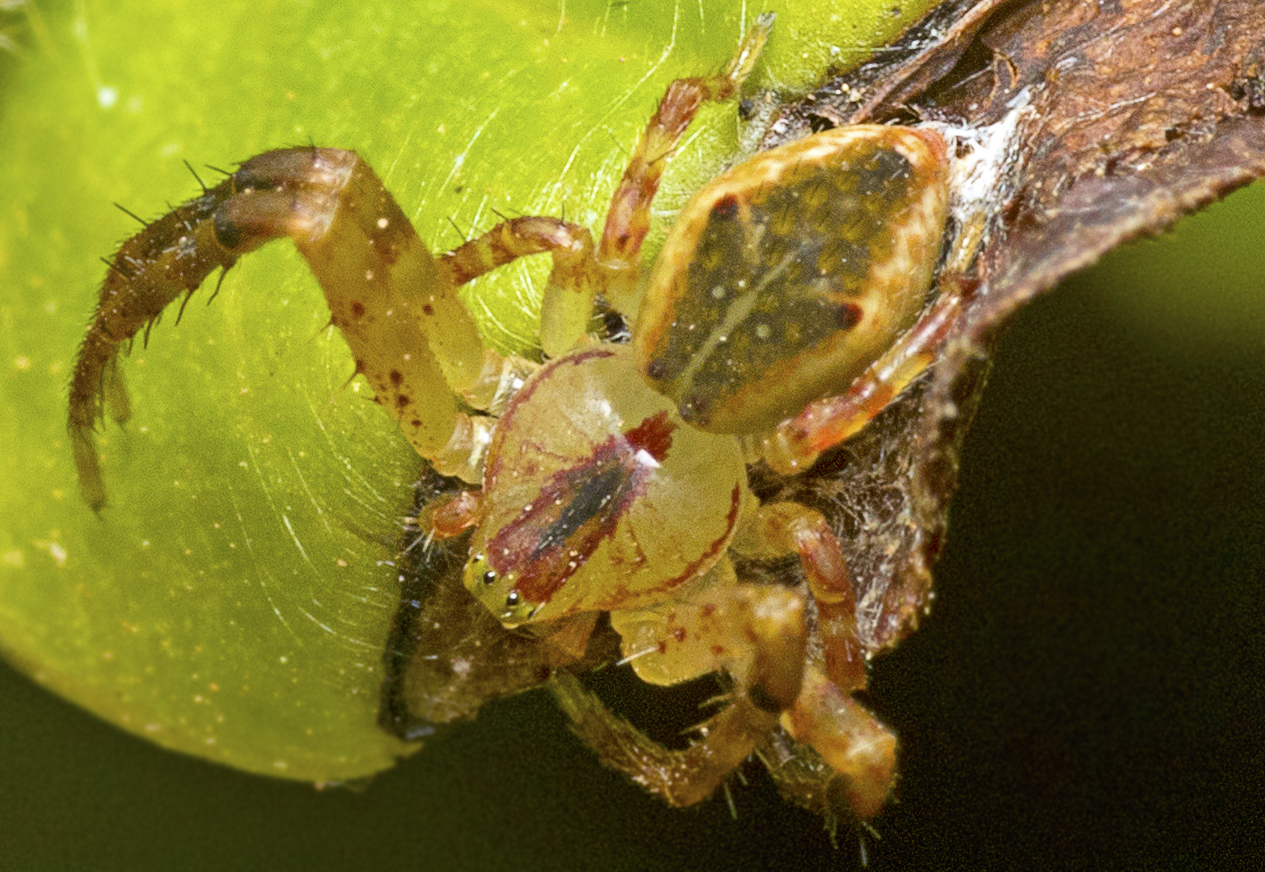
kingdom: Animalia
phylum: Arthropoda
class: Arachnida
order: Araneae
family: Thomisidae
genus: Sidymella
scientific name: Sidymella rubrosignata
